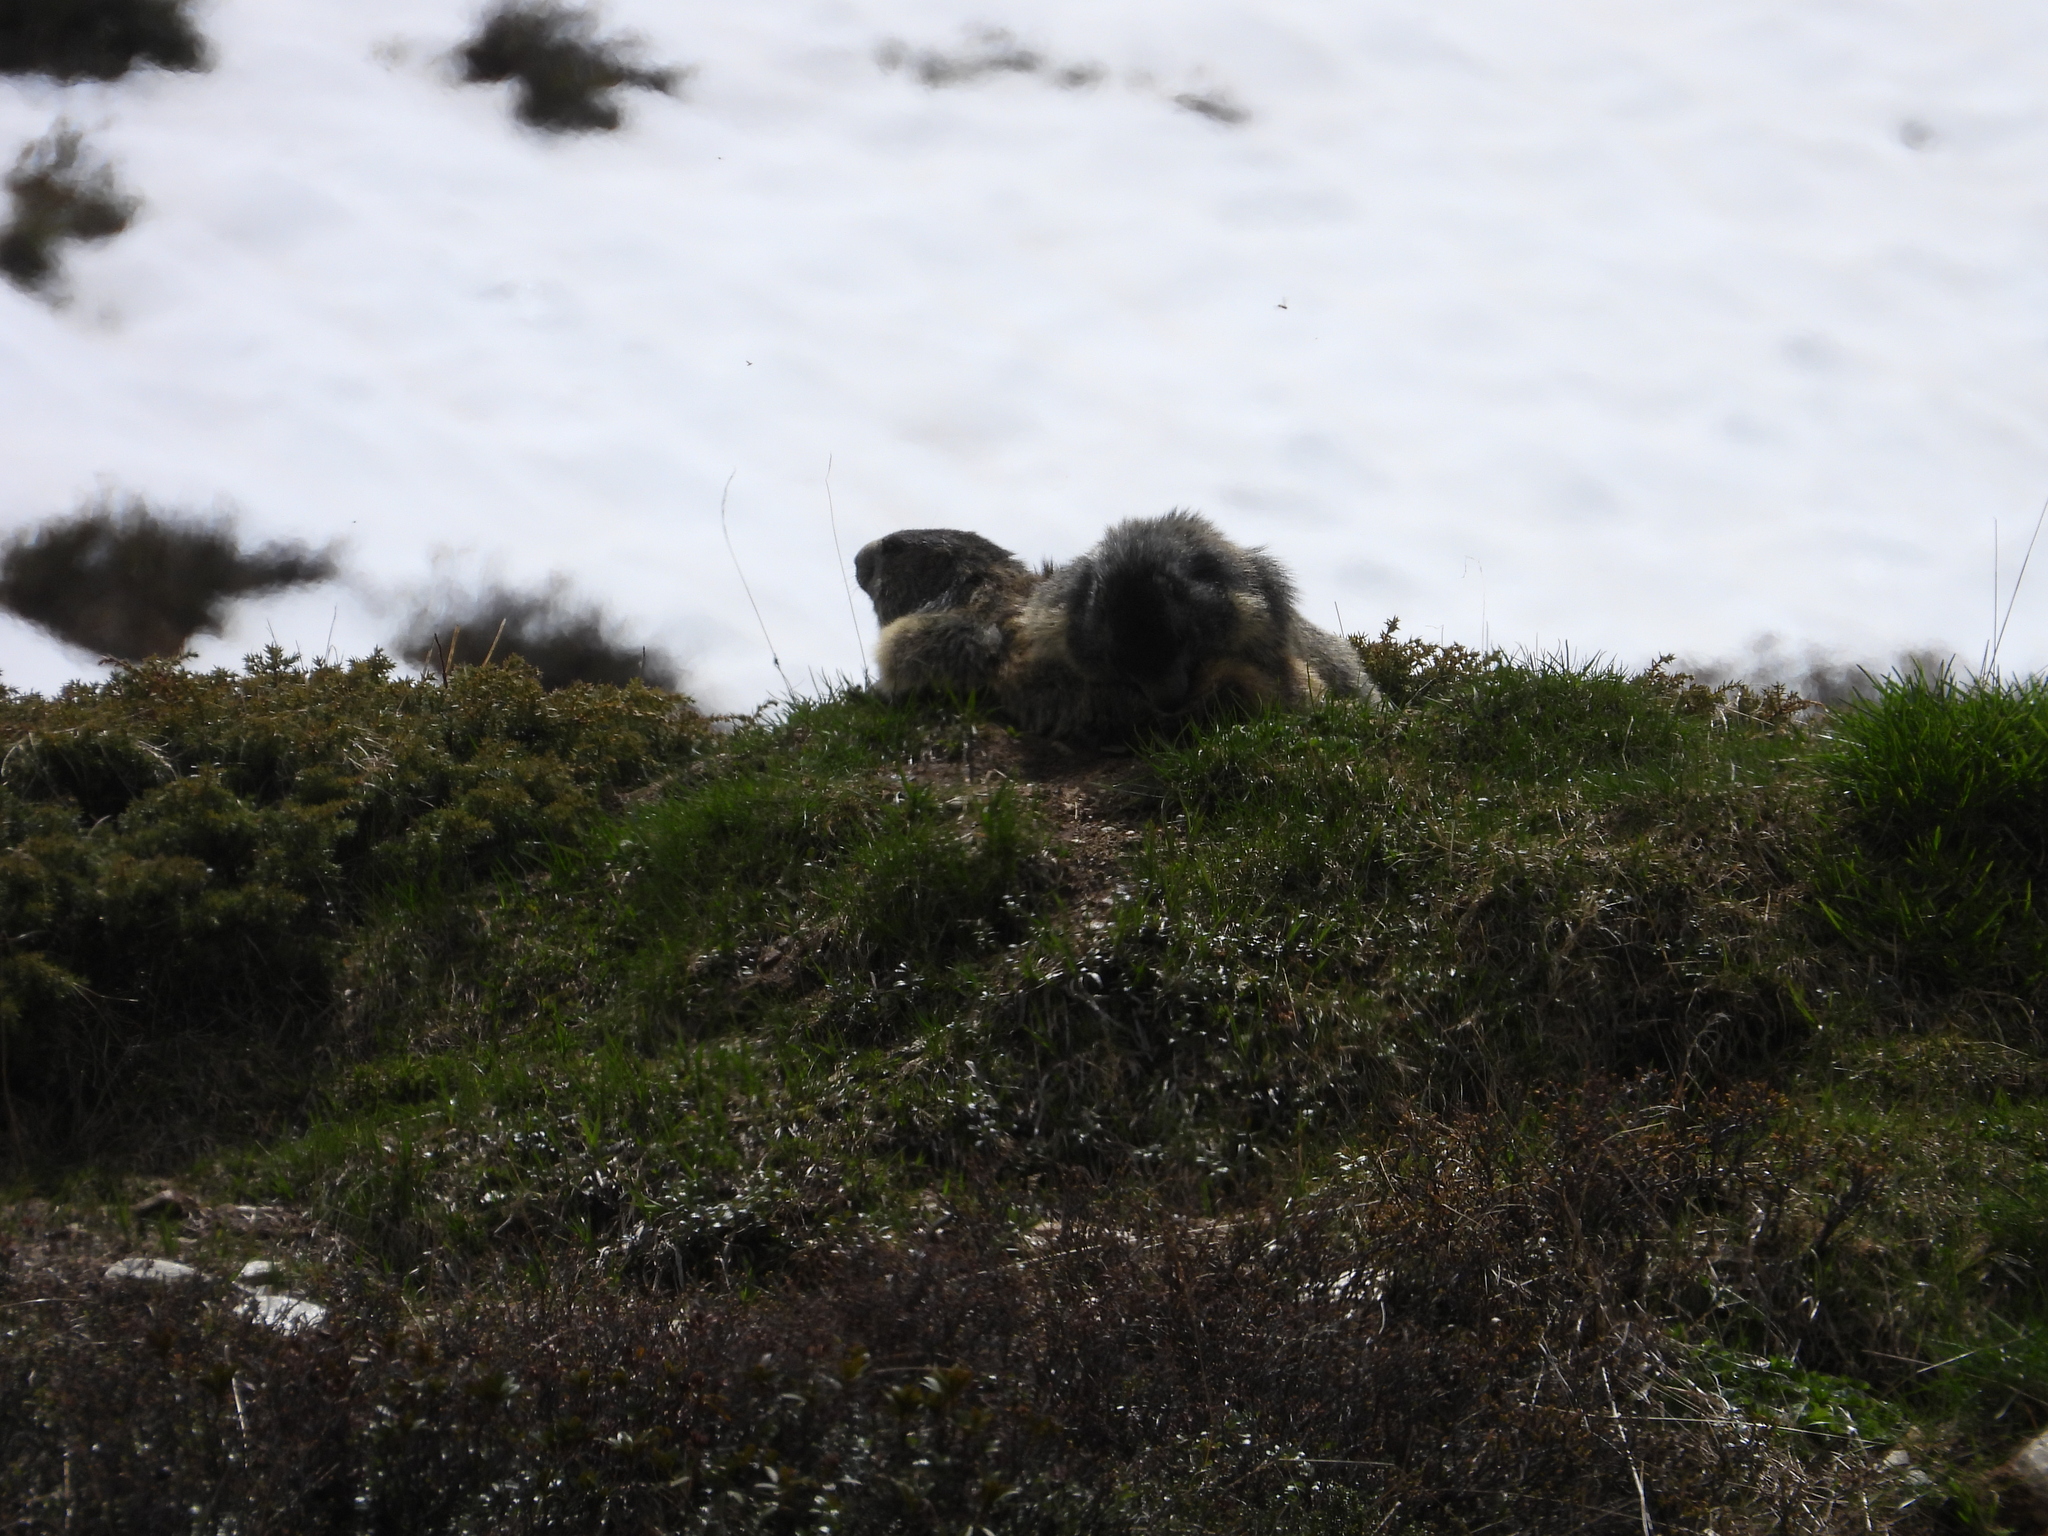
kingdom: Animalia
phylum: Chordata
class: Mammalia
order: Rodentia
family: Sciuridae
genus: Marmota
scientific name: Marmota marmota
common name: Alpine marmot
